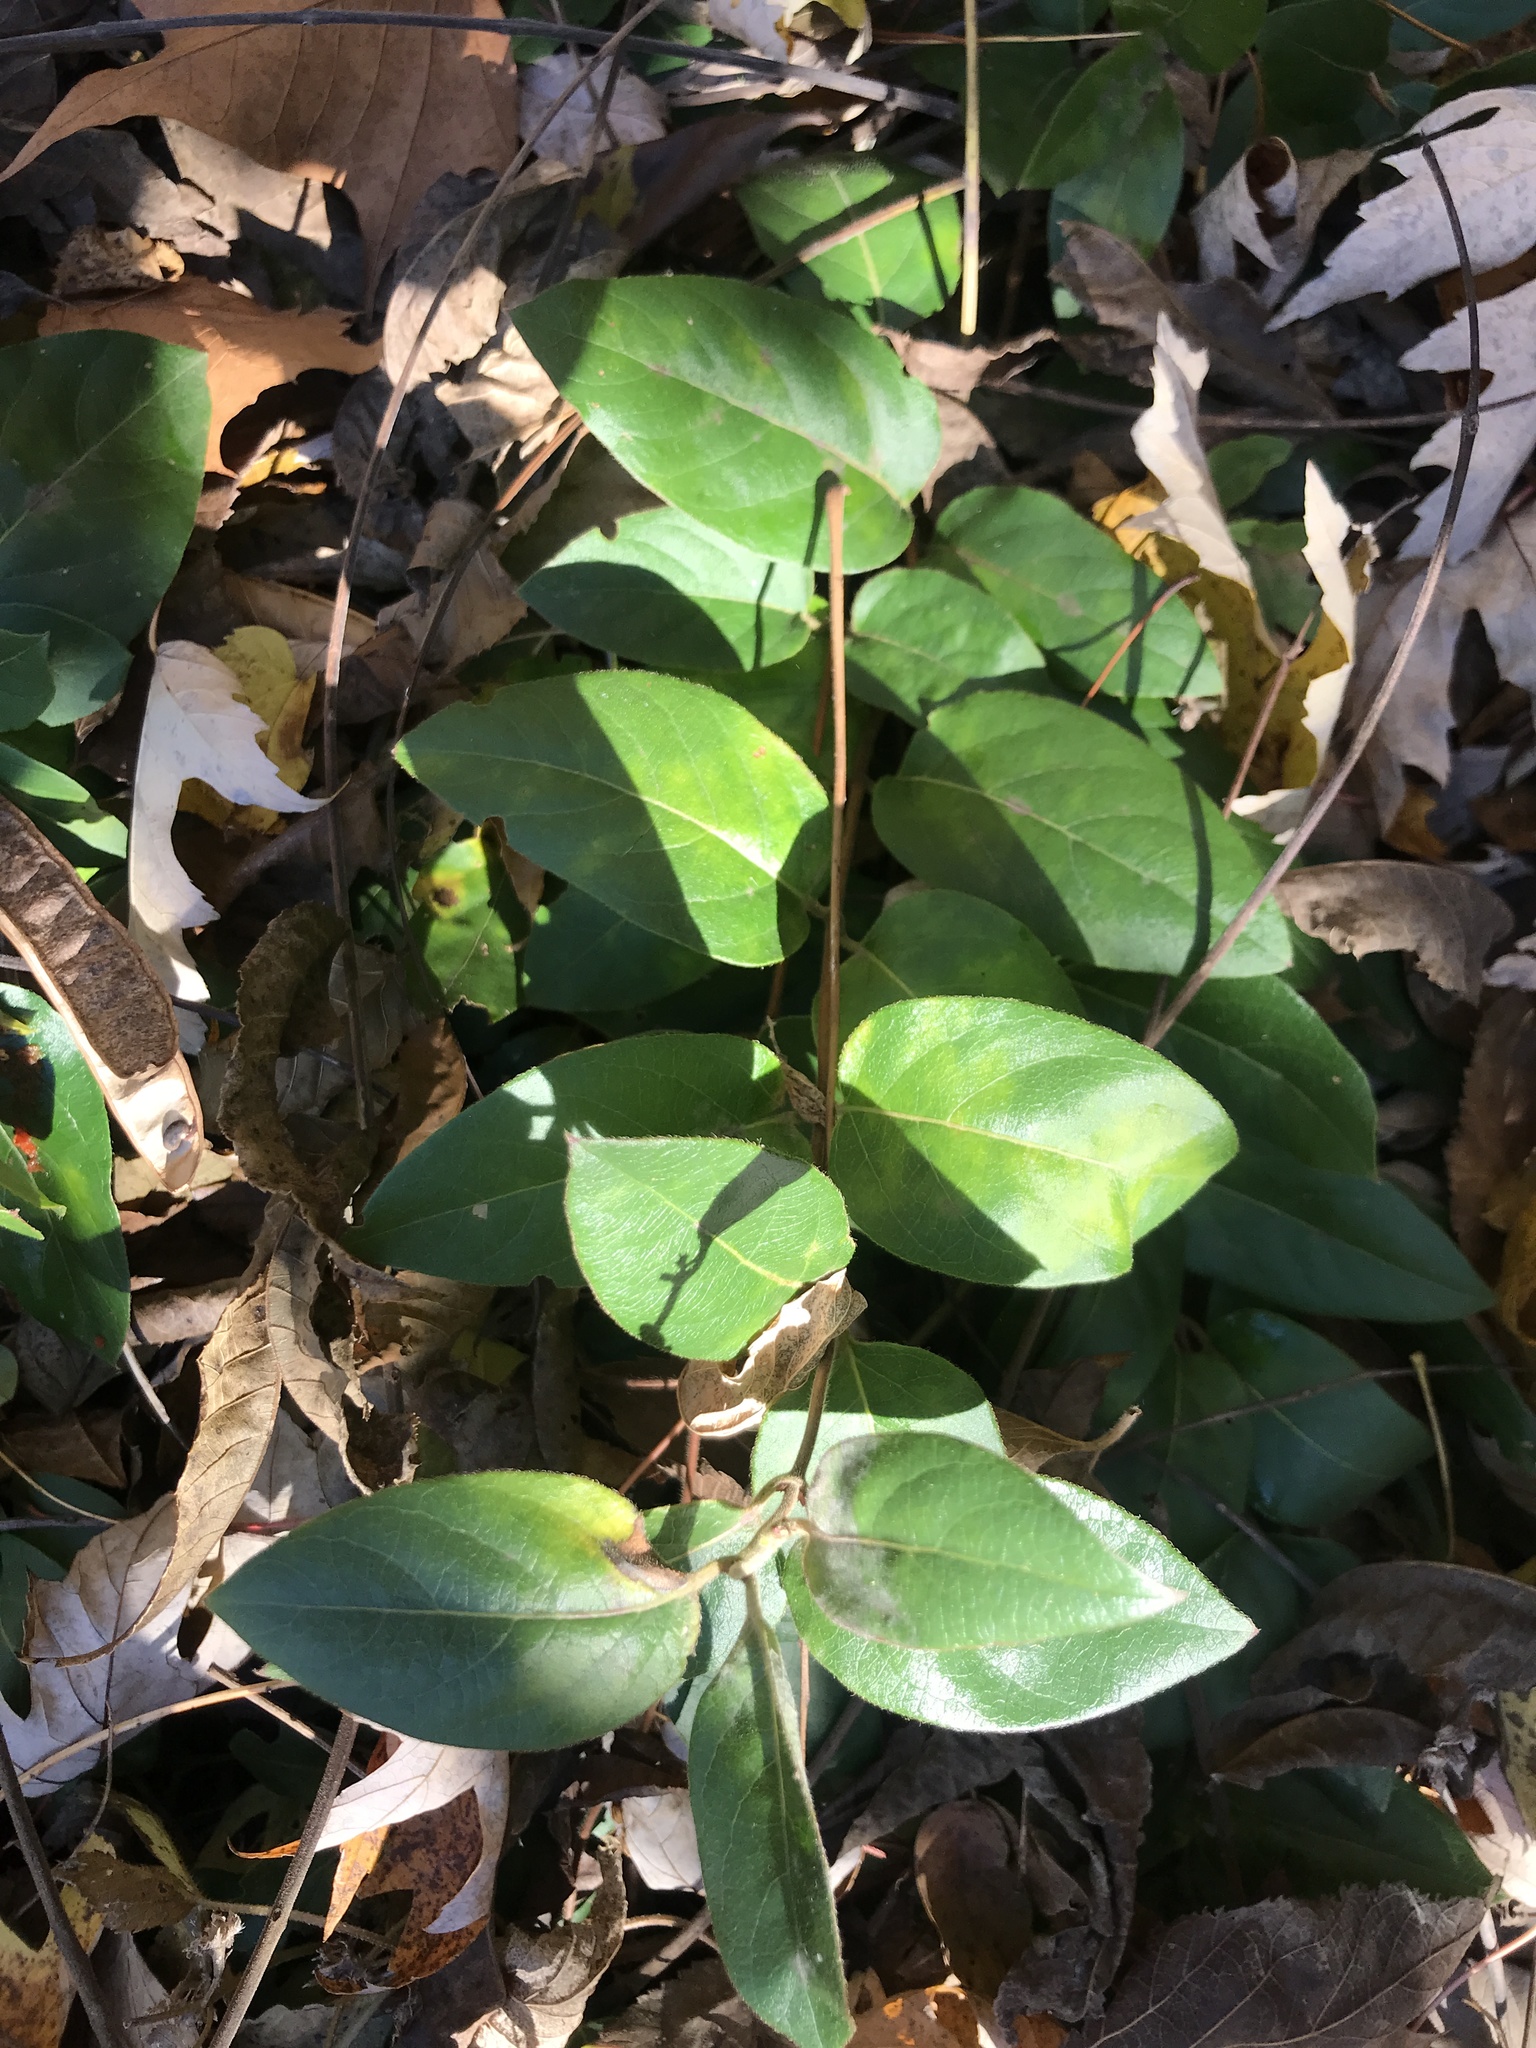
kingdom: Plantae
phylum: Tracheophyta
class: Magnoliopsida
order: Dipsacales
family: Caprifoliaceae
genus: Lonicera
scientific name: Lonicera japonica
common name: Japanese honeysuckle
